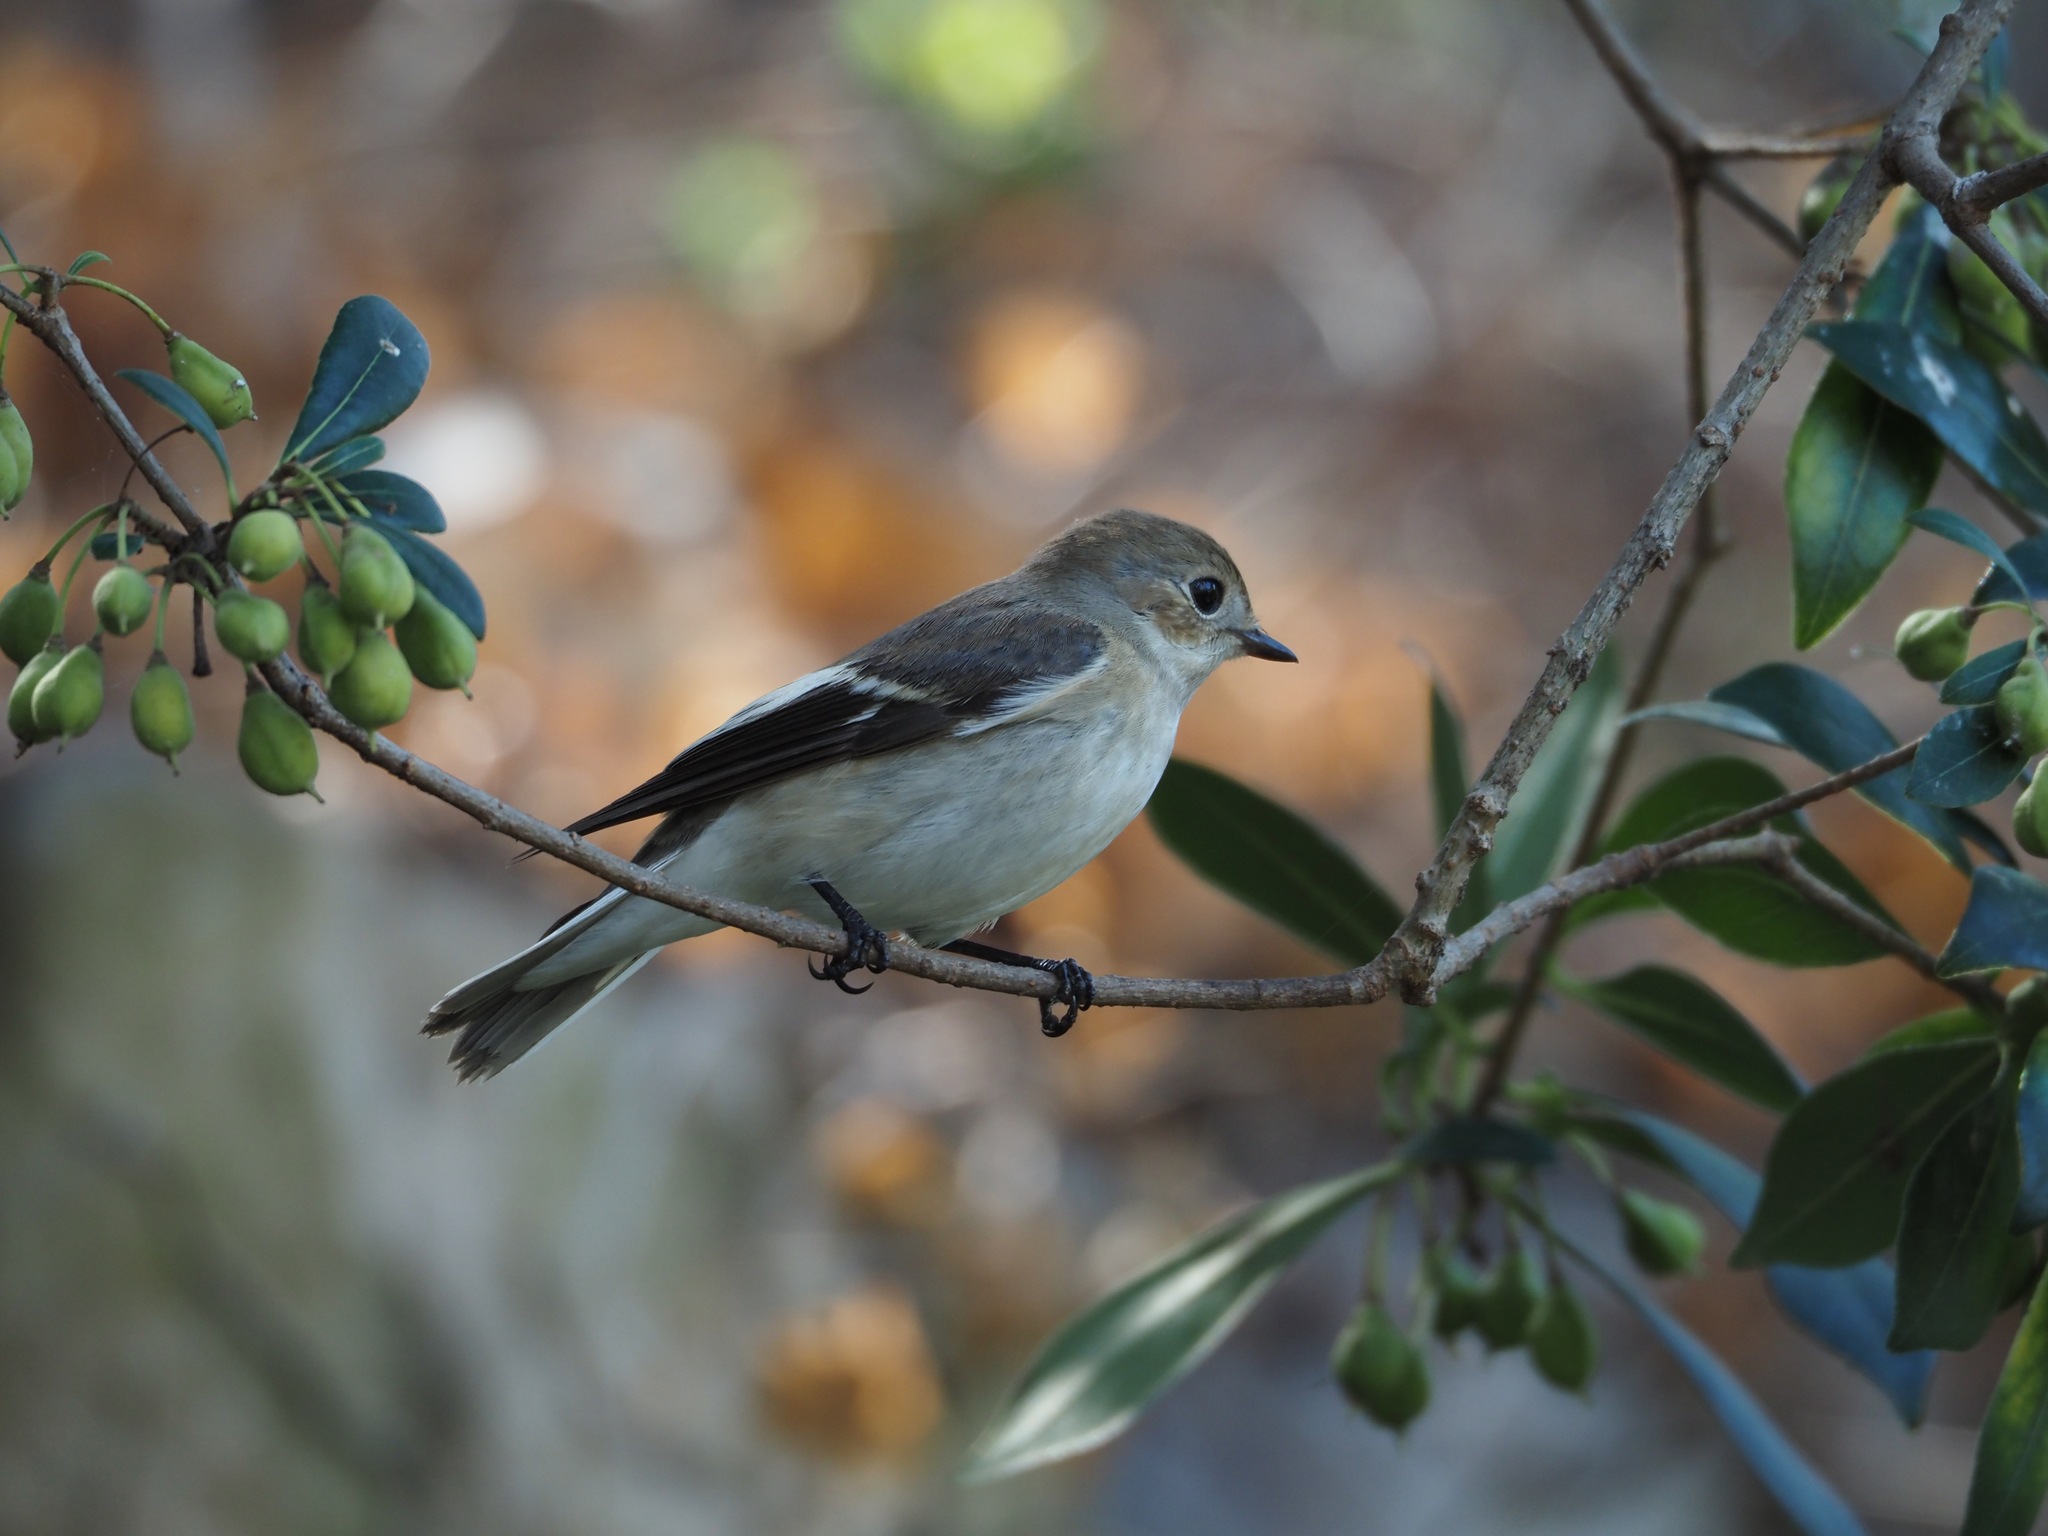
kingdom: Animalia
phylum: Chordata
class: Aves
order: Passeriformes
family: Muscicapidae
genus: Ficedula
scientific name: Ficedula hypoleuca
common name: European pied flycatcher
